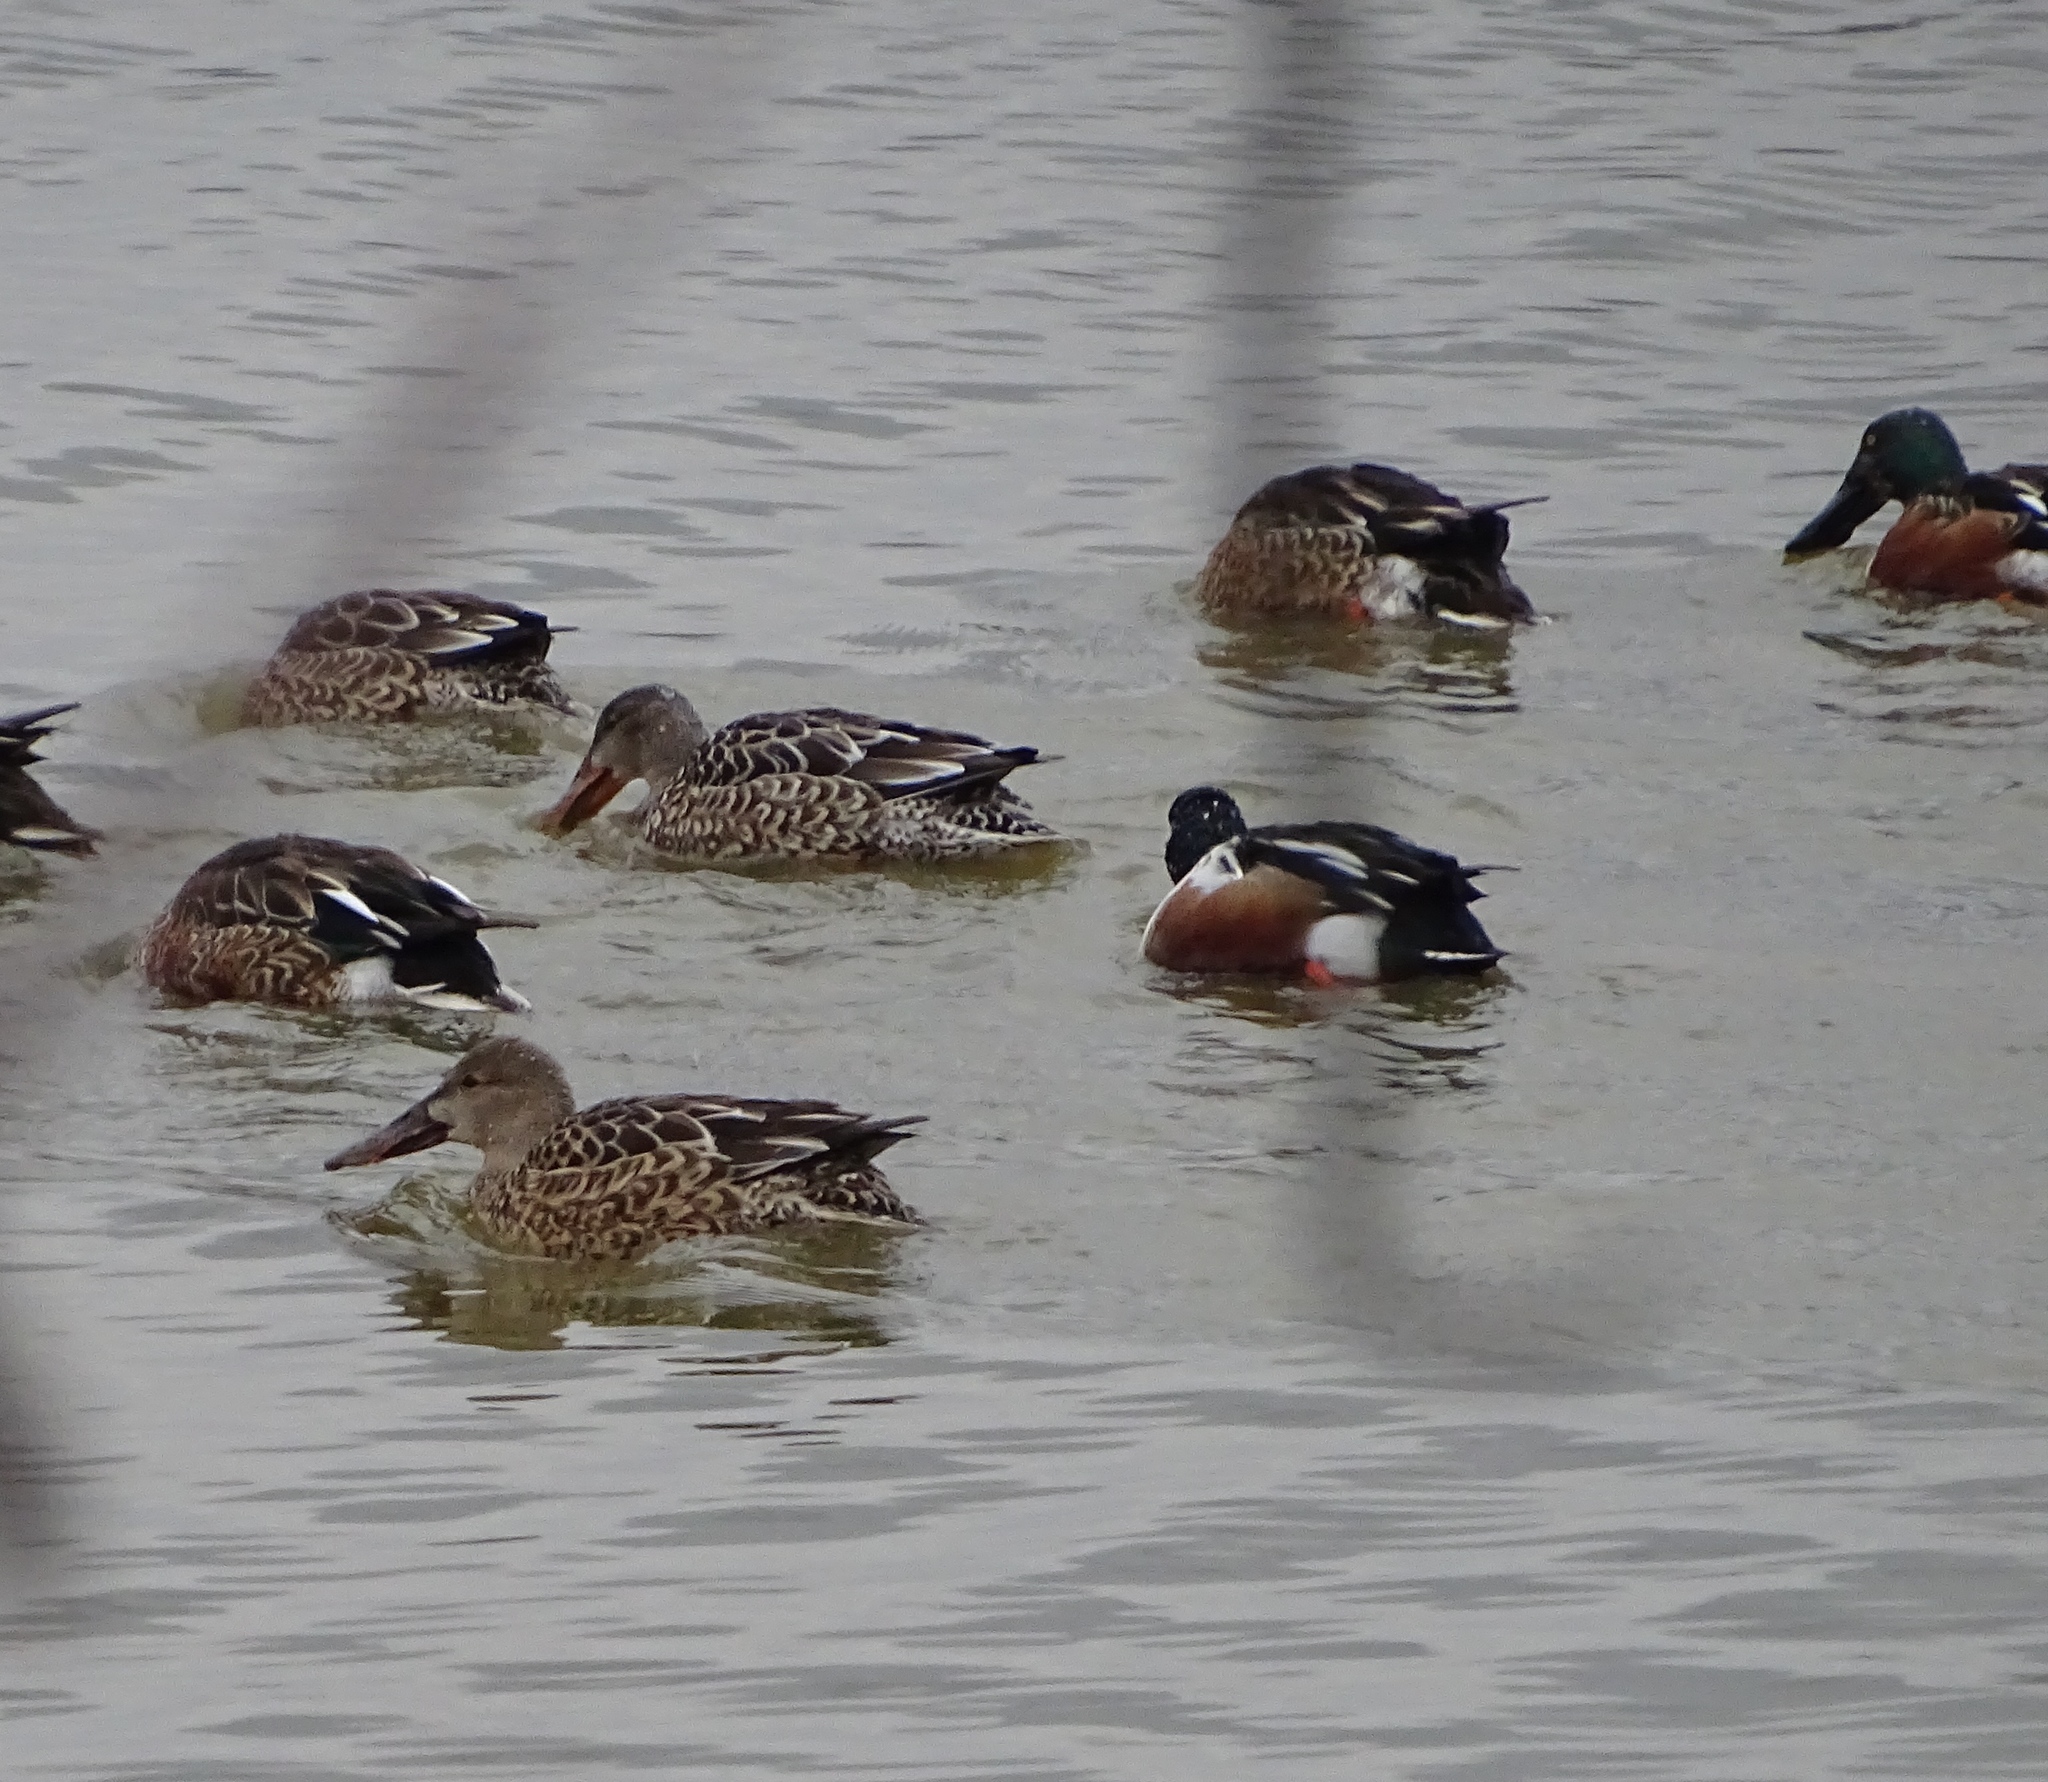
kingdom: Animalia
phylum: Chordata
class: Aves
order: Anseriformes
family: Anatidae
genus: Spatula
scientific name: Spatula clypeata
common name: Northern shoveler
